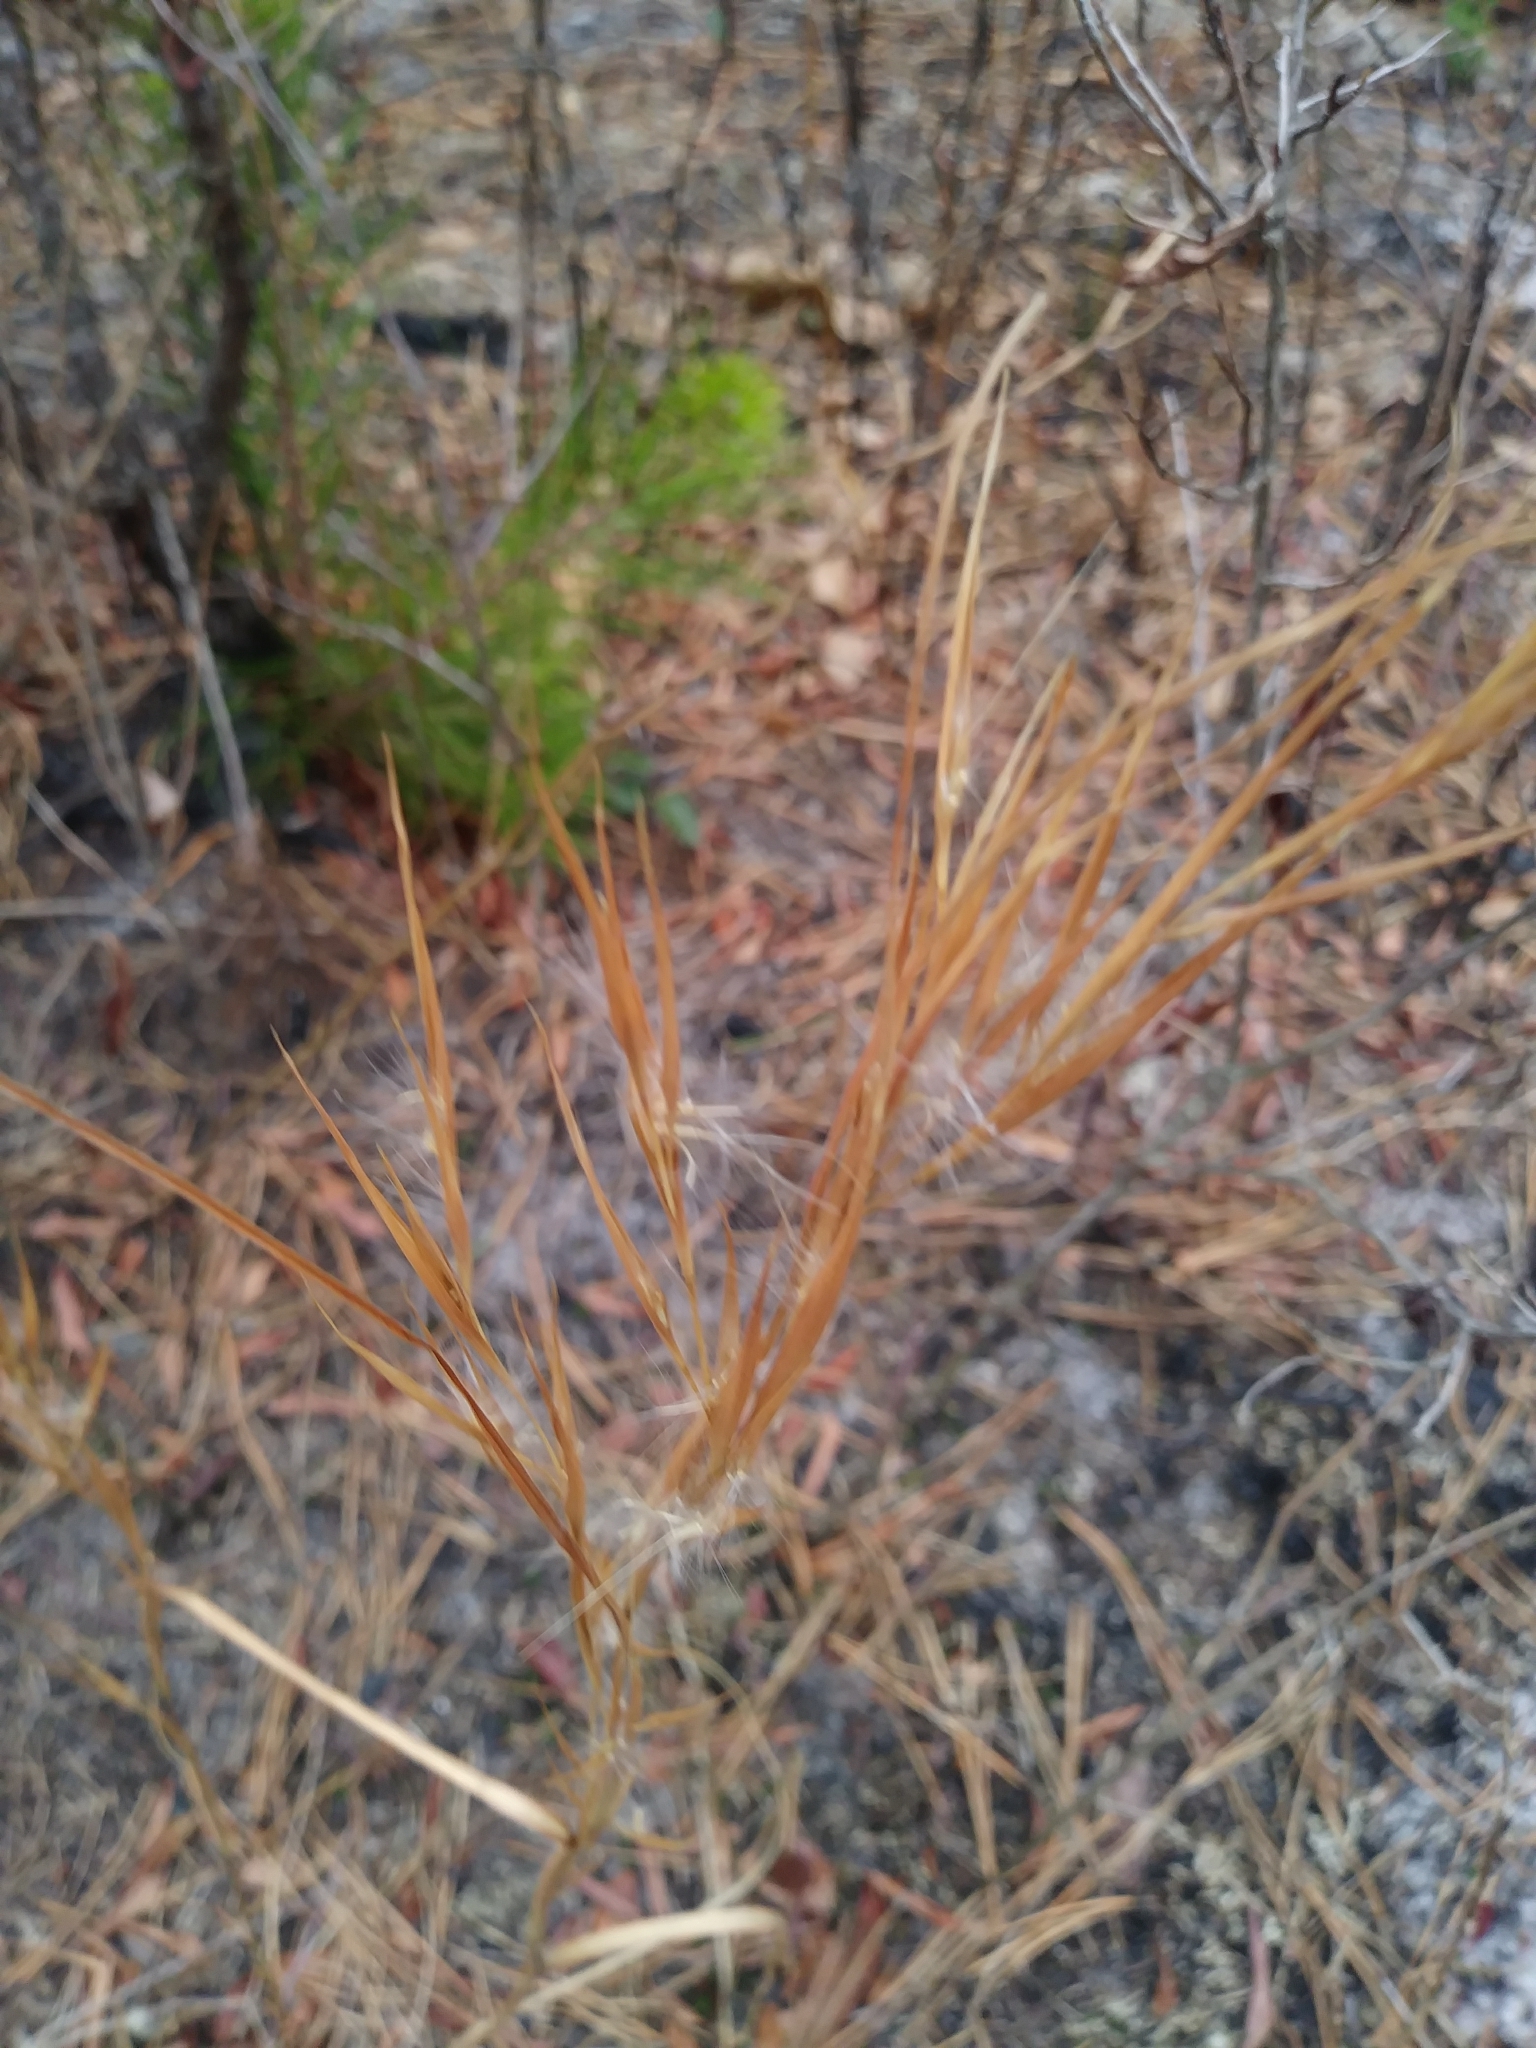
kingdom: Plantae
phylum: Tracheophyta
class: Liliopsida
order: Poales
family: Poaceae
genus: Andropogon
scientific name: Andropogon virginicus
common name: Broomsedge bluestem
